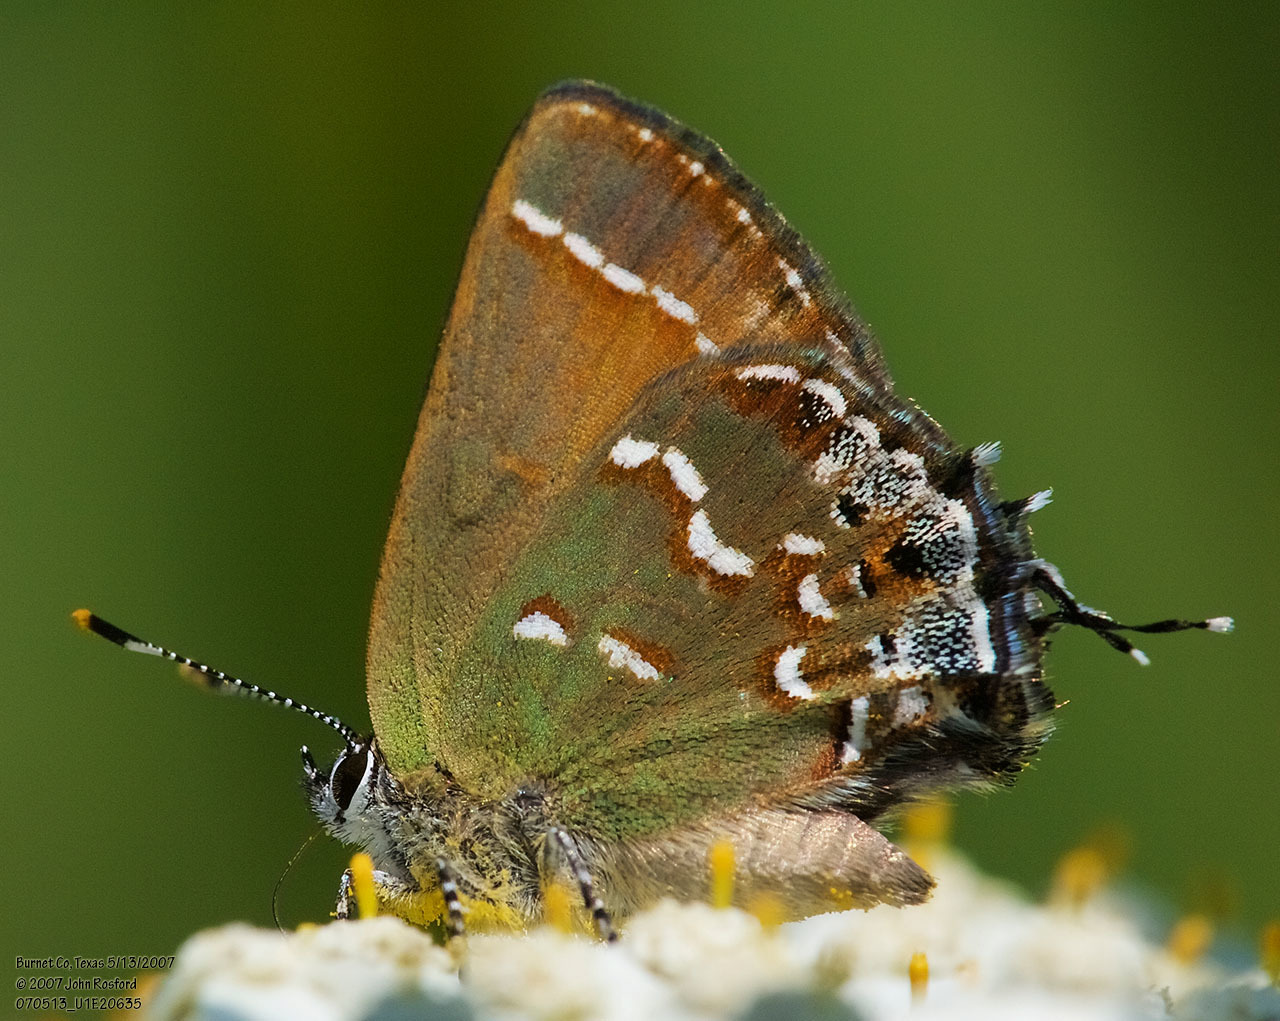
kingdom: Animalia
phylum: Arthropoda
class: Insecta
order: Lepidoptera
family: Lycaenidae
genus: Mitoura
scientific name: Mitoura gryneus
